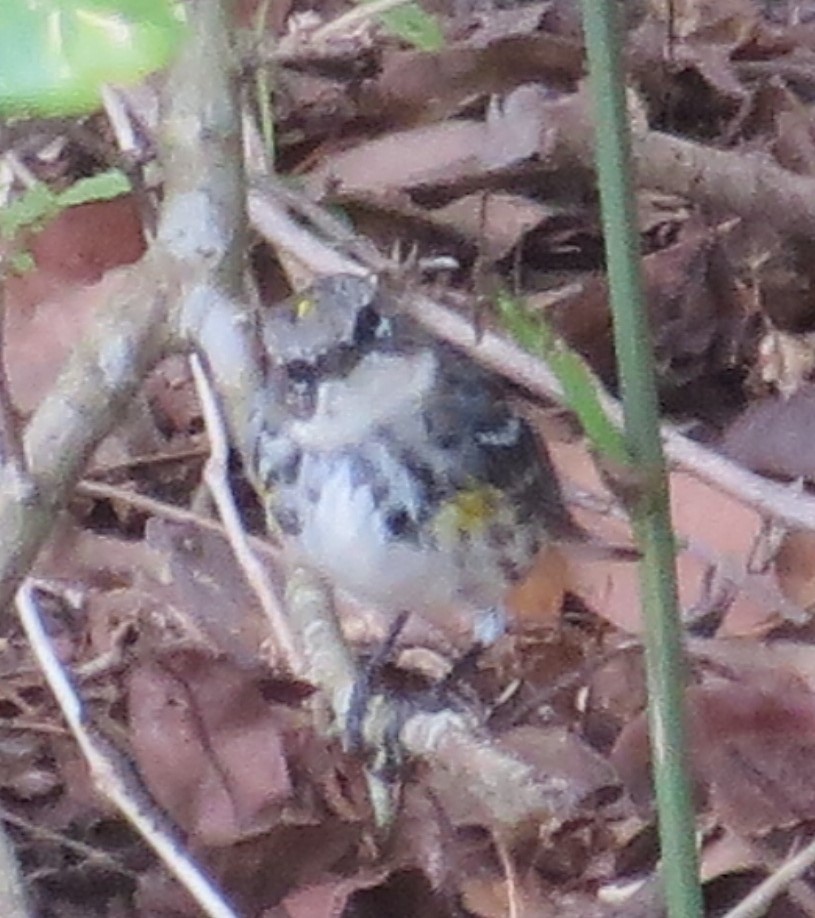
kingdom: Animalia
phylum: Chordata
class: Aves
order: Passeriformes
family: Parulidae
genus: Setophaga
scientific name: Setophaga coronata
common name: Myrtle warbler
